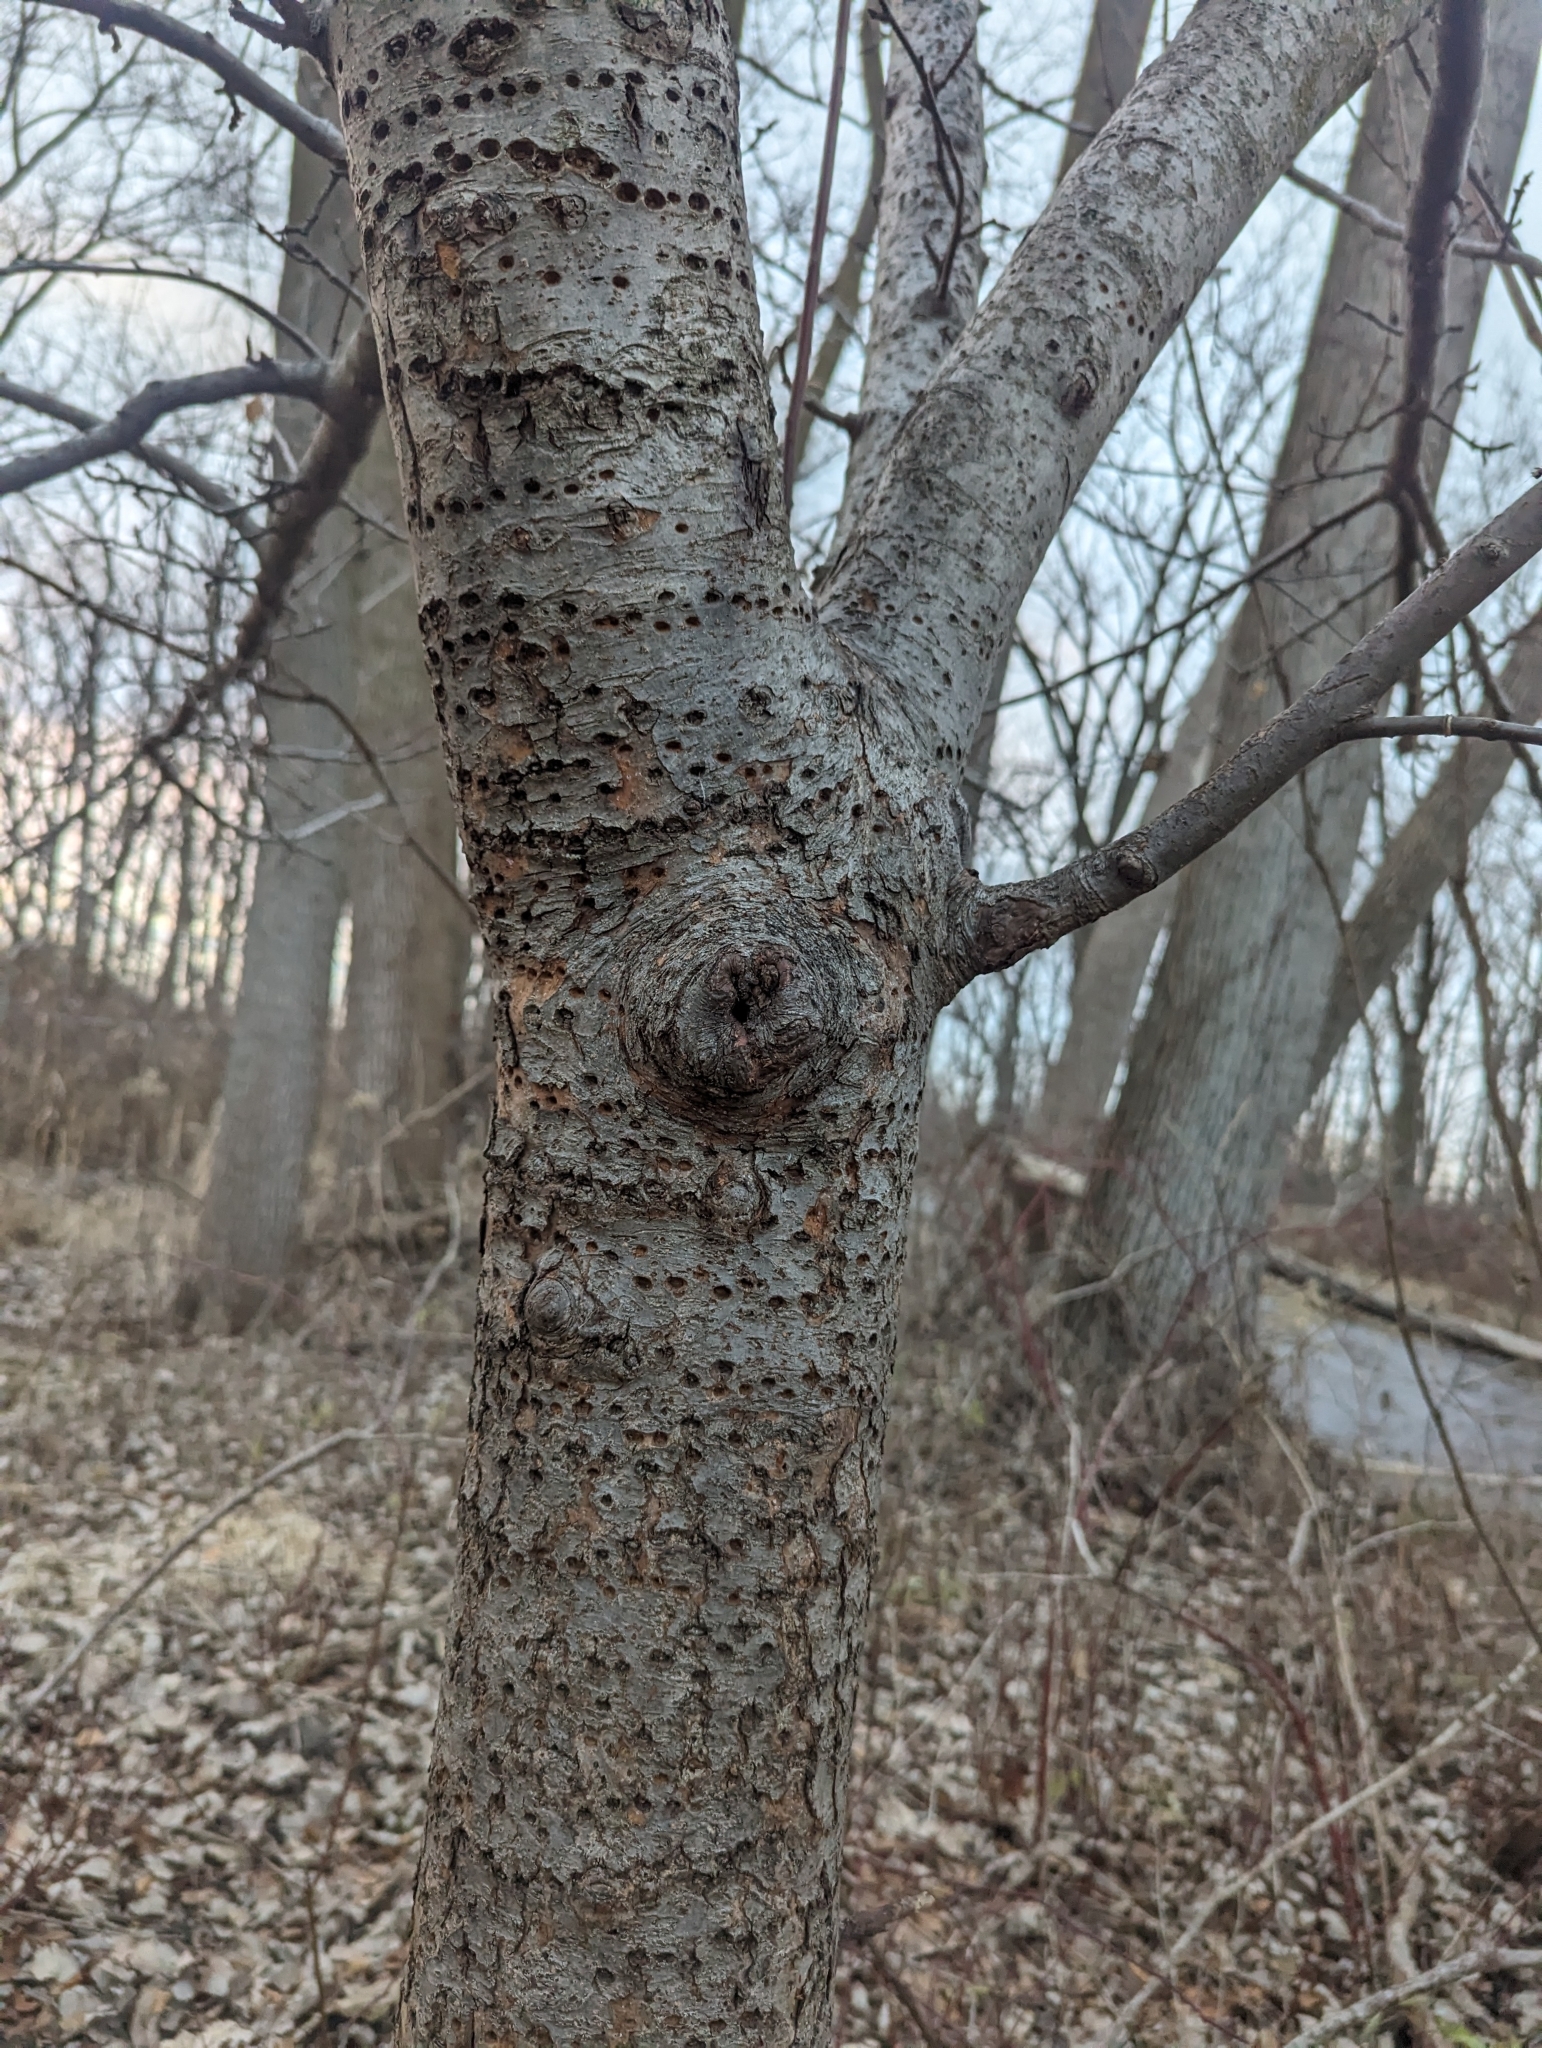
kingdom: Animalia
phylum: Chordata
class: Aves
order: Piciformes
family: Picidae
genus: Sphyrapicus
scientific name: Sphyrapicus varius
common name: Yellow-bellied sapsucker
